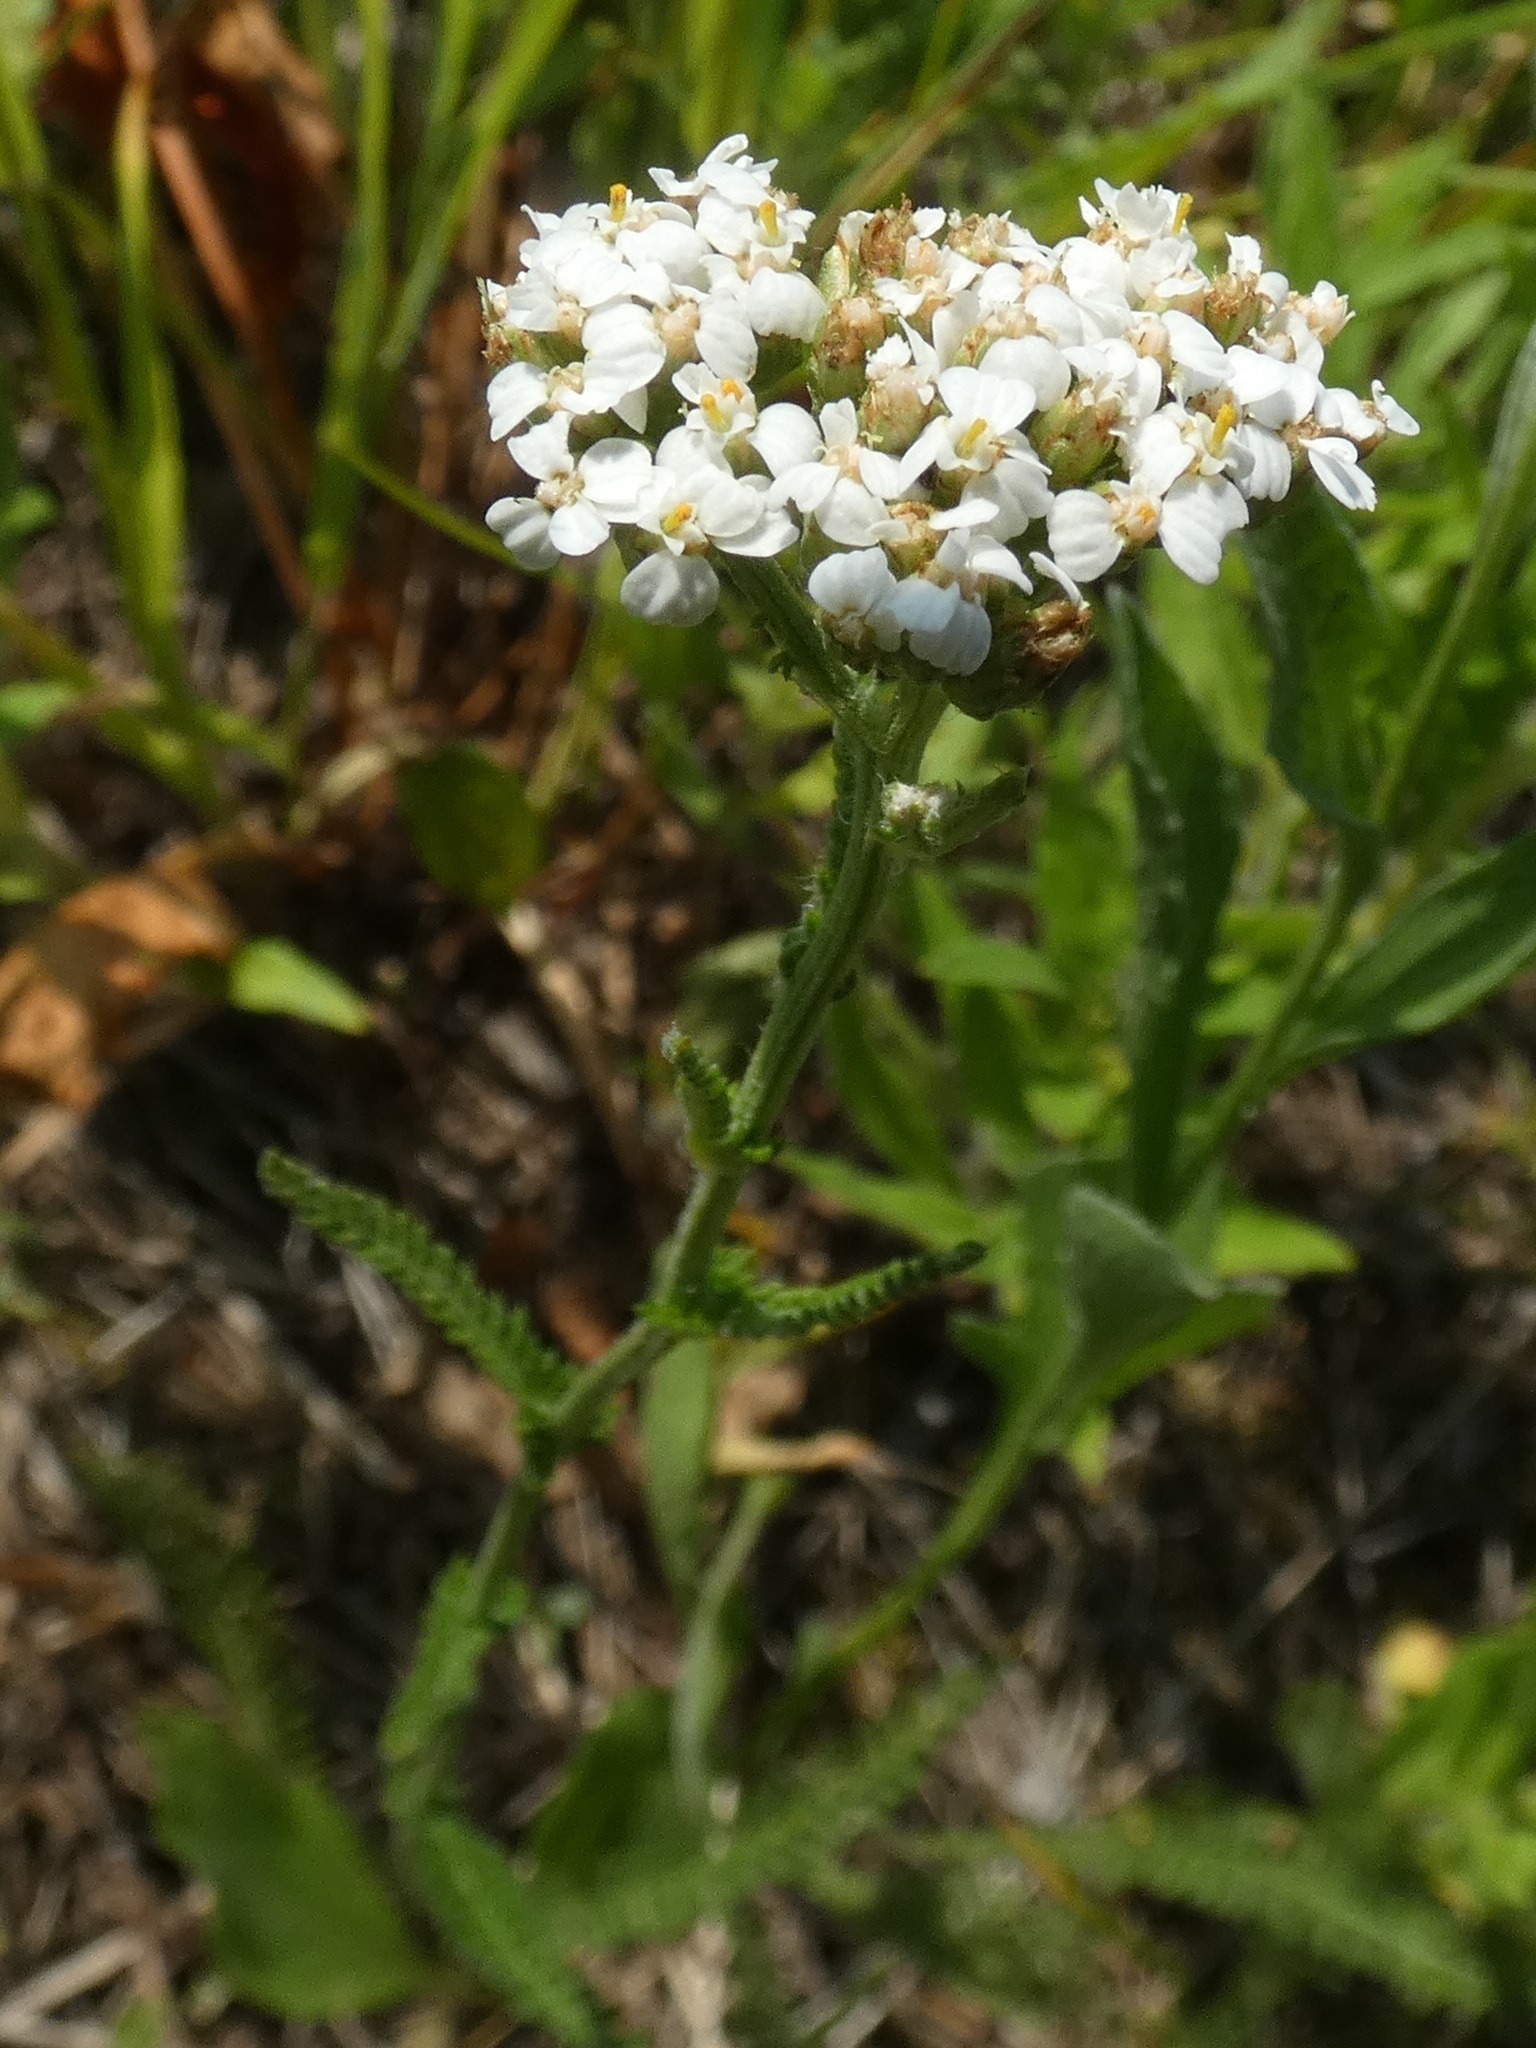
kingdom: Plantae
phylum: Tracheophyta
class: Magnoliopsida
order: Asterales
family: Asteraceae
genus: Achillea
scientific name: Achillea millefolium
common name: Yarrow
